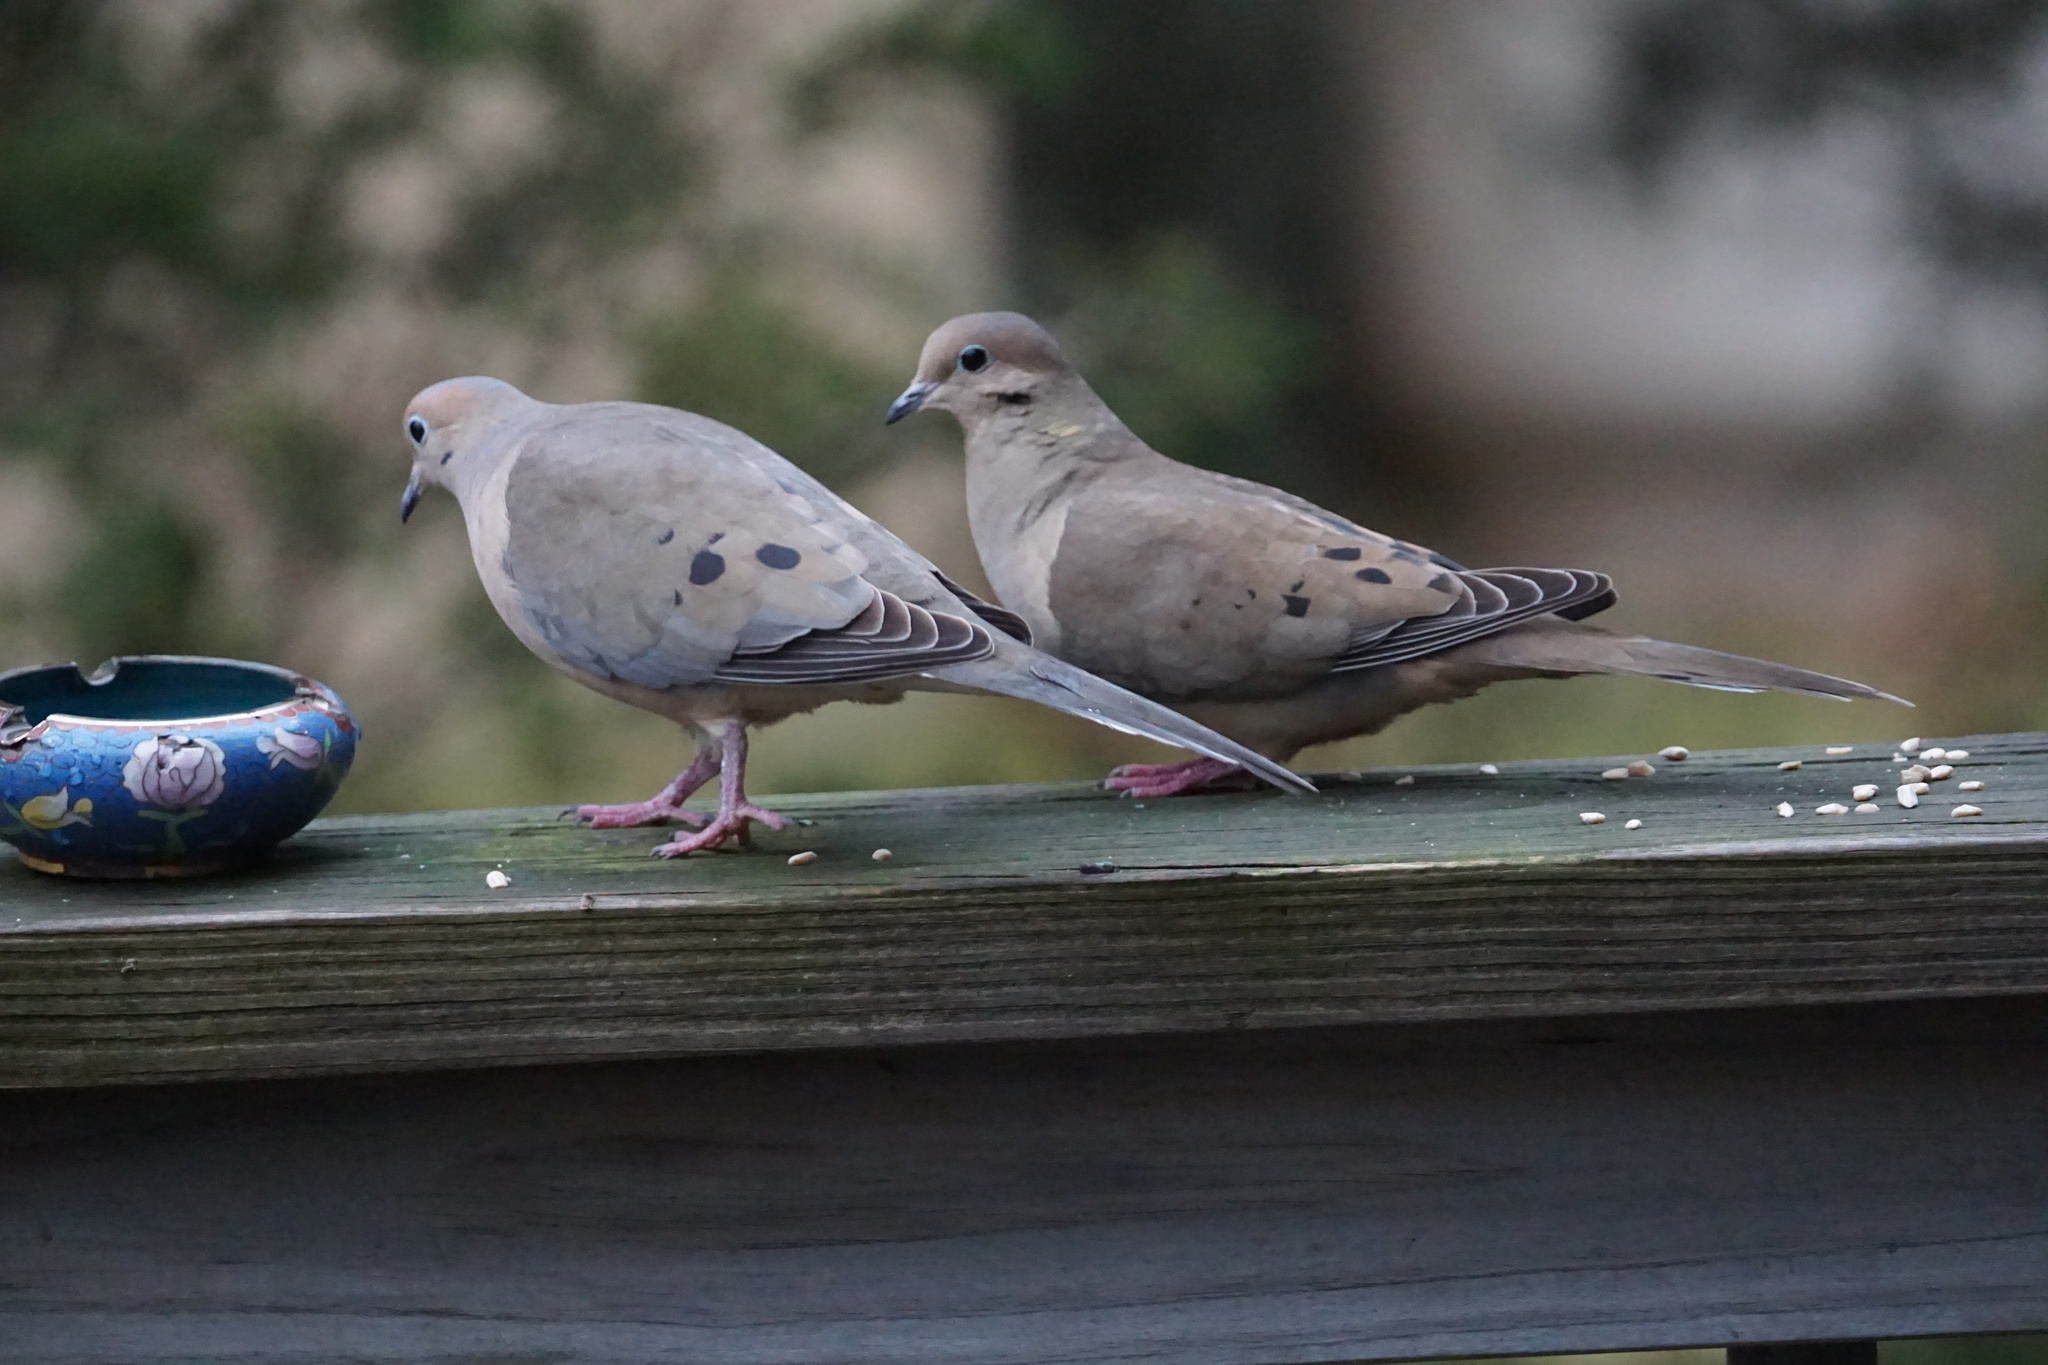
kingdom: Animalia
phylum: Chordata
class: Aves
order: Columbiformes
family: Columbidae
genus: Zenaida
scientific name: Zenaida macroura
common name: Mourning dove
